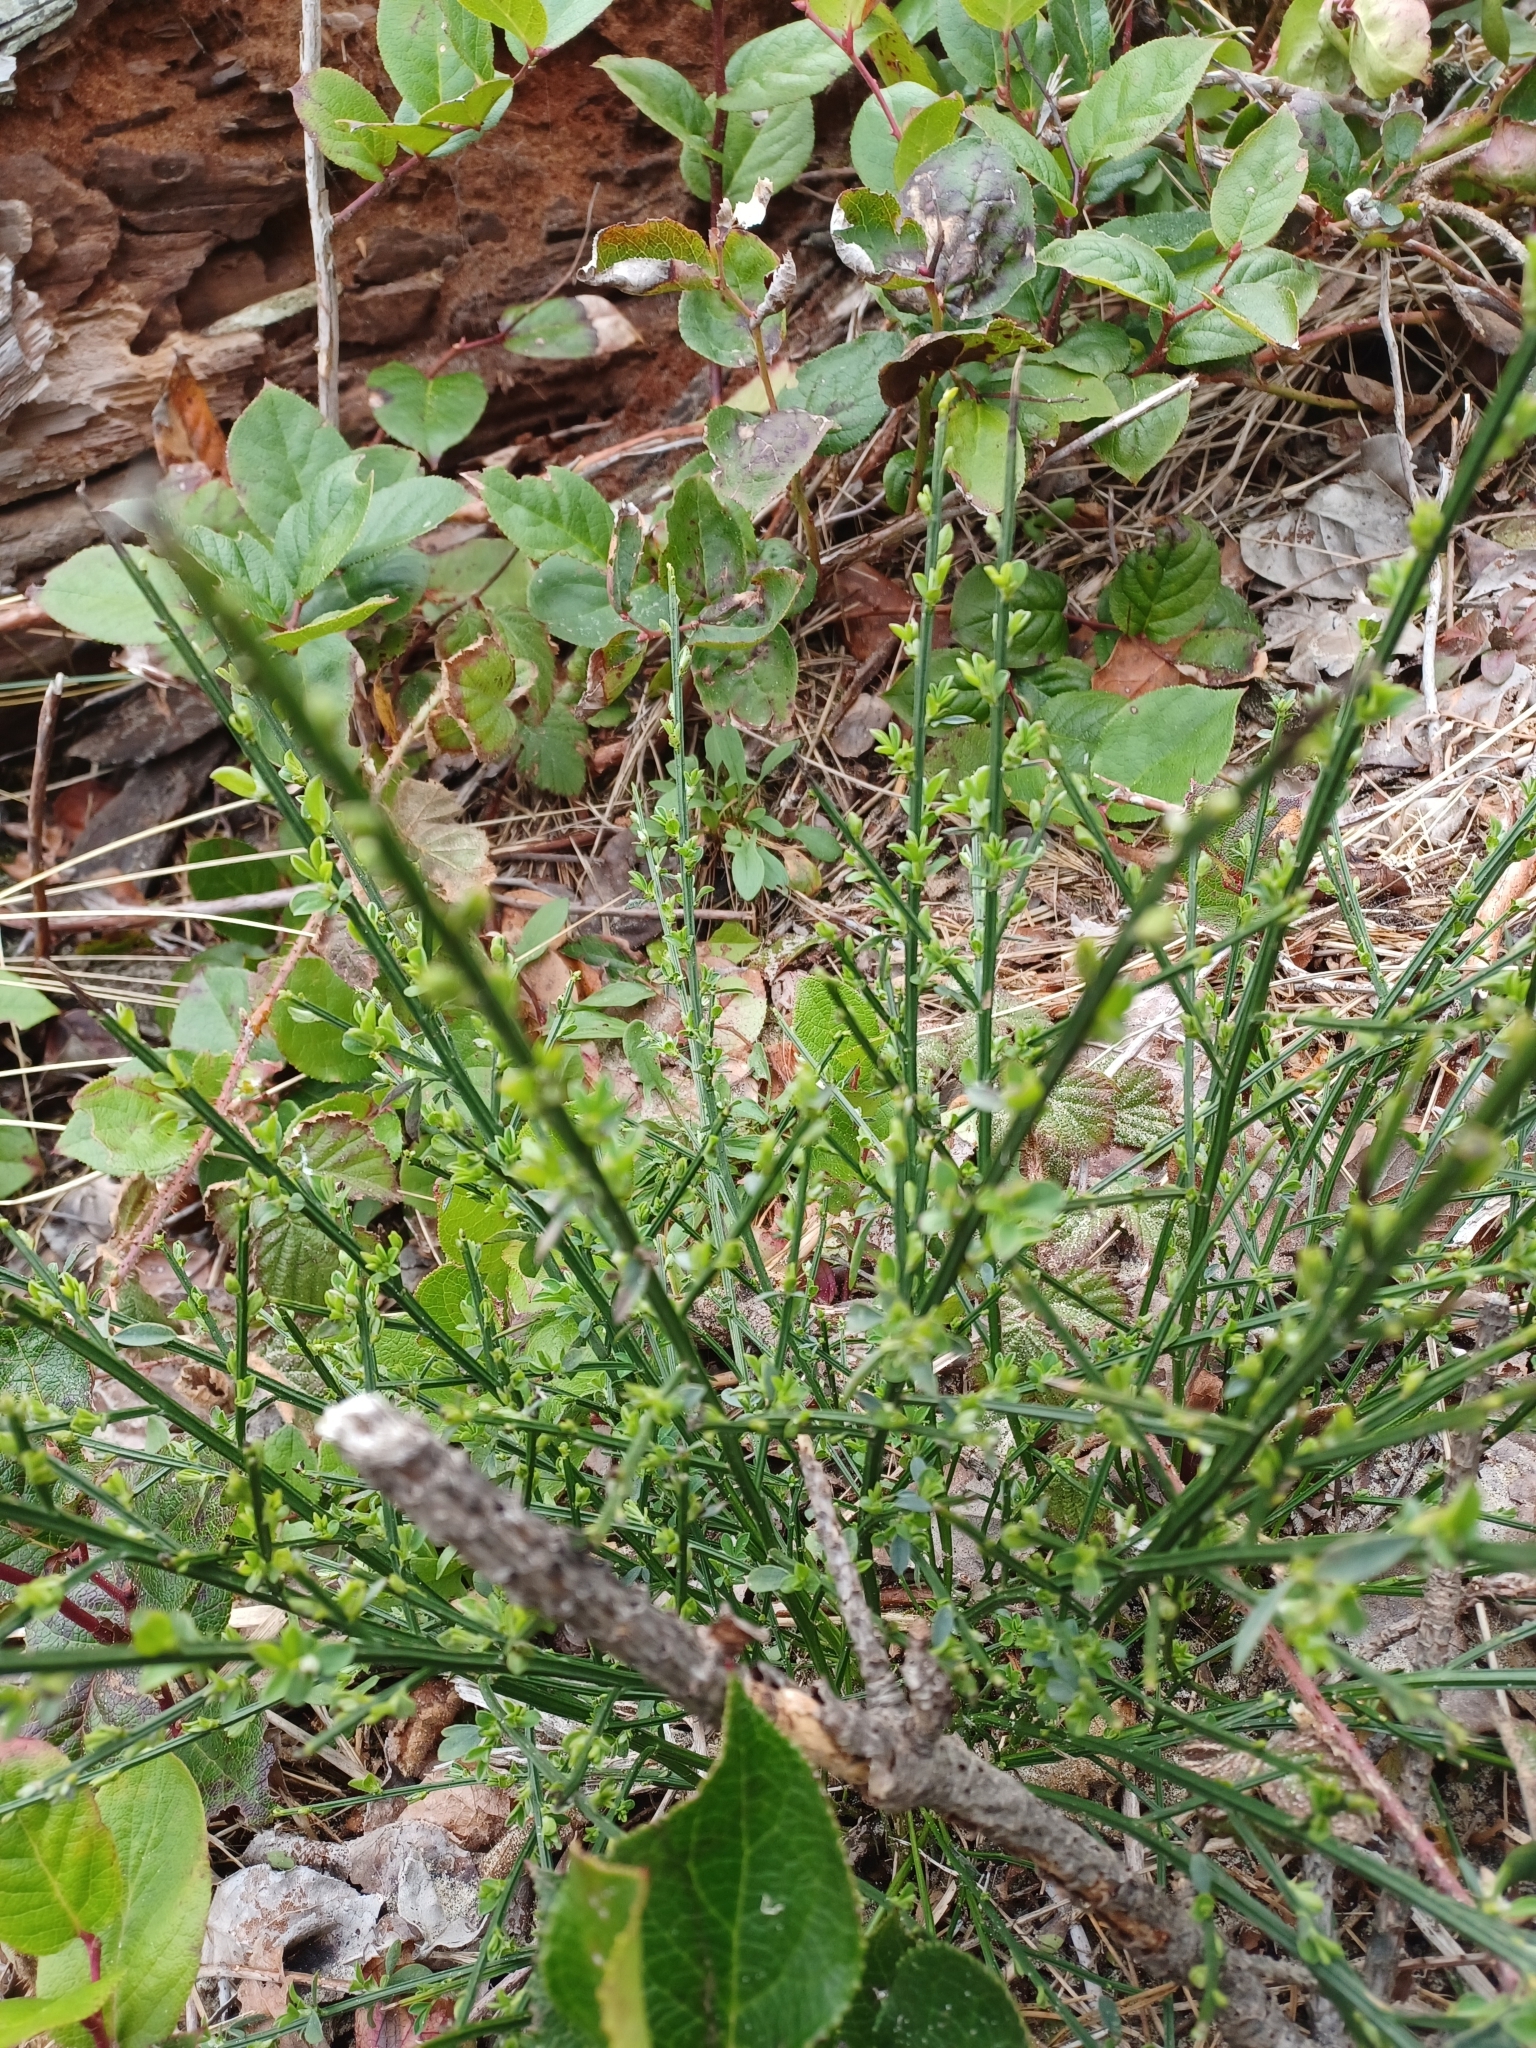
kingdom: Plantae
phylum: Tracheophyta
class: Magnoliopsida
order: Fabales
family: Fabaceae
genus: Cytisus
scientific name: Cytisus scoparius
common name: Scotch broom
